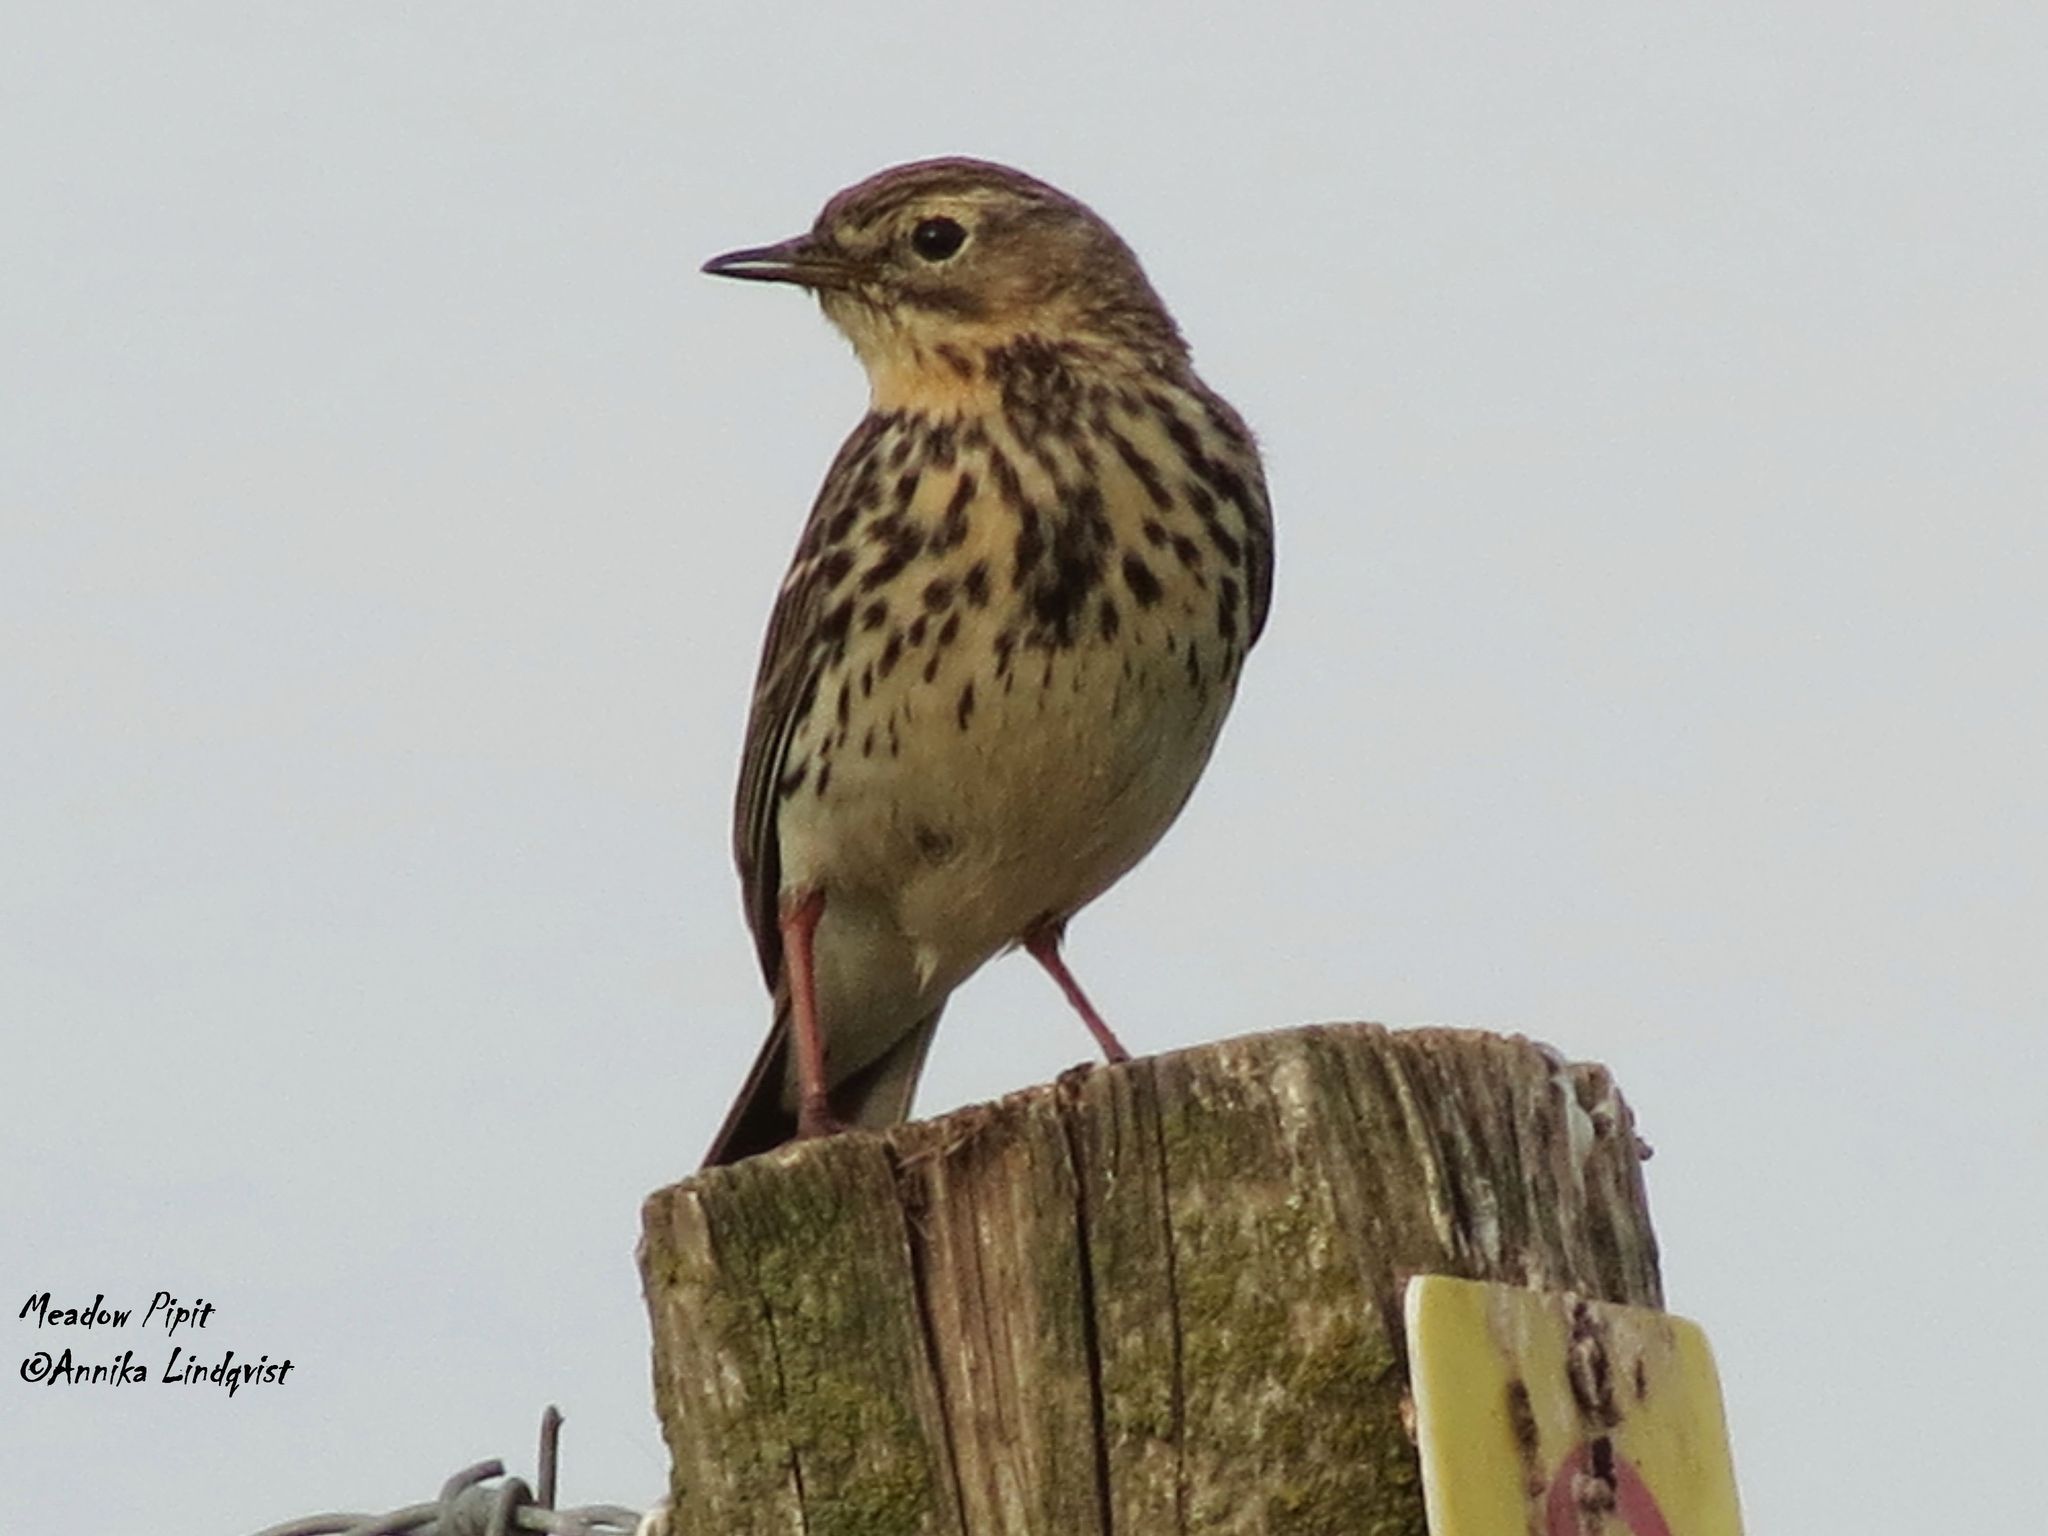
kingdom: Animalia
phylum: Chordata
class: Aves
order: Passeriformes
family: Motacillidae
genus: Anthus
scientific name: Anthus pratensis
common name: Meadow pipit
